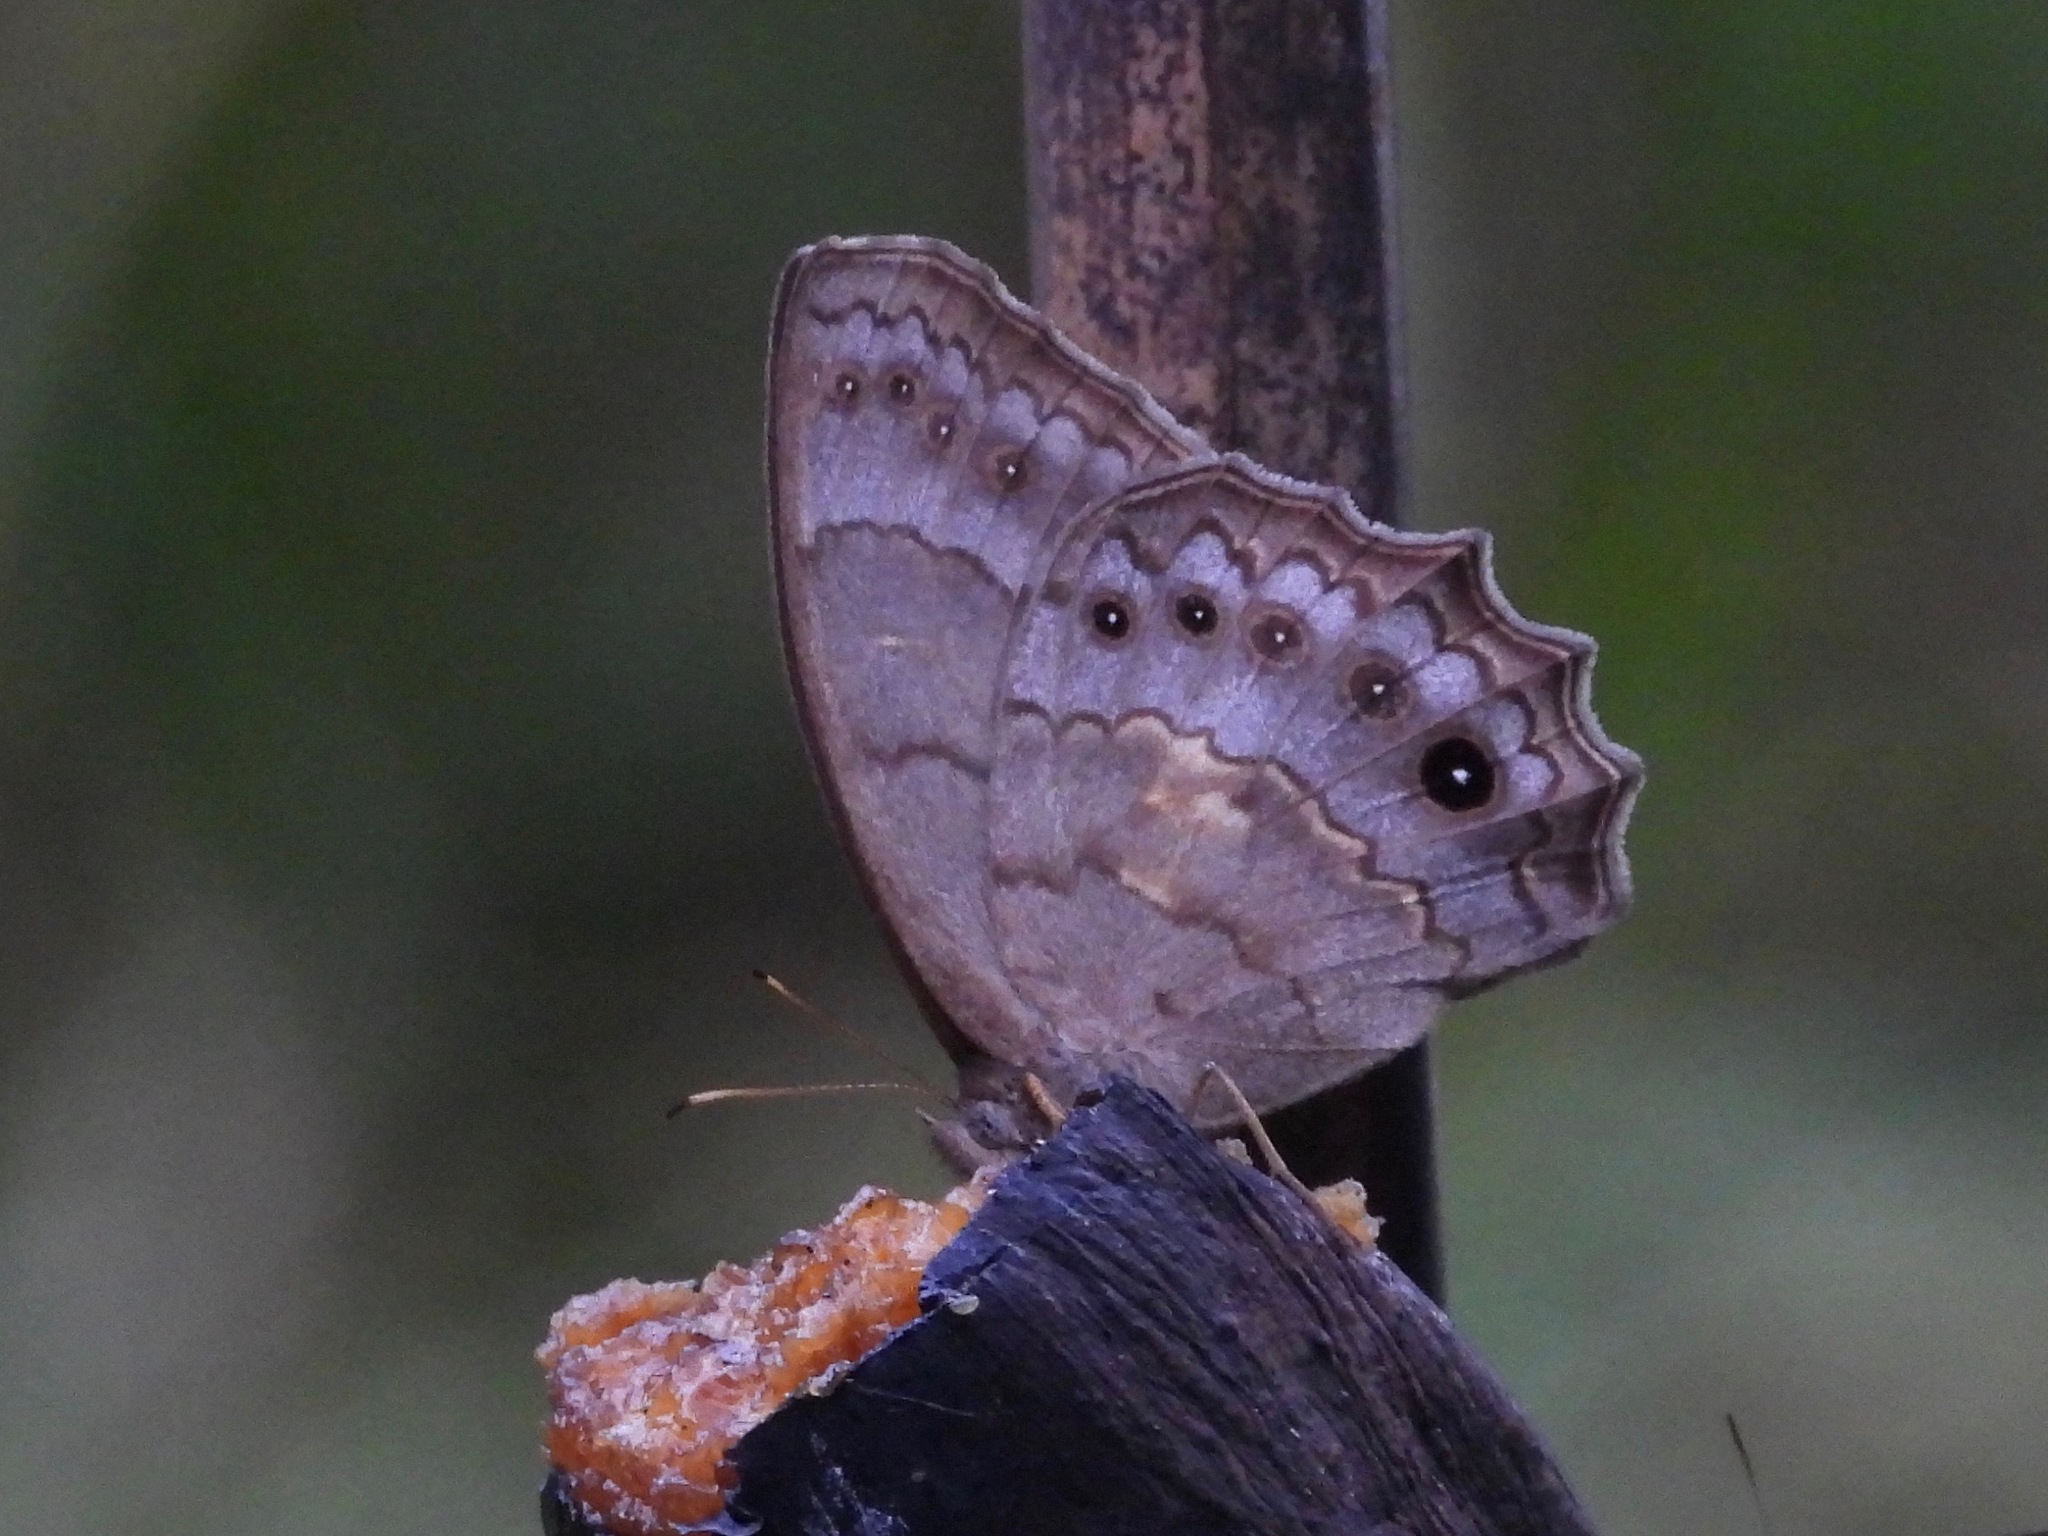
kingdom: Animalia
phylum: Arthropoda
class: Insecta
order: Lepidoptera
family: Nymphalidae
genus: Pseudodebis
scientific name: Pseudodebis valentina
